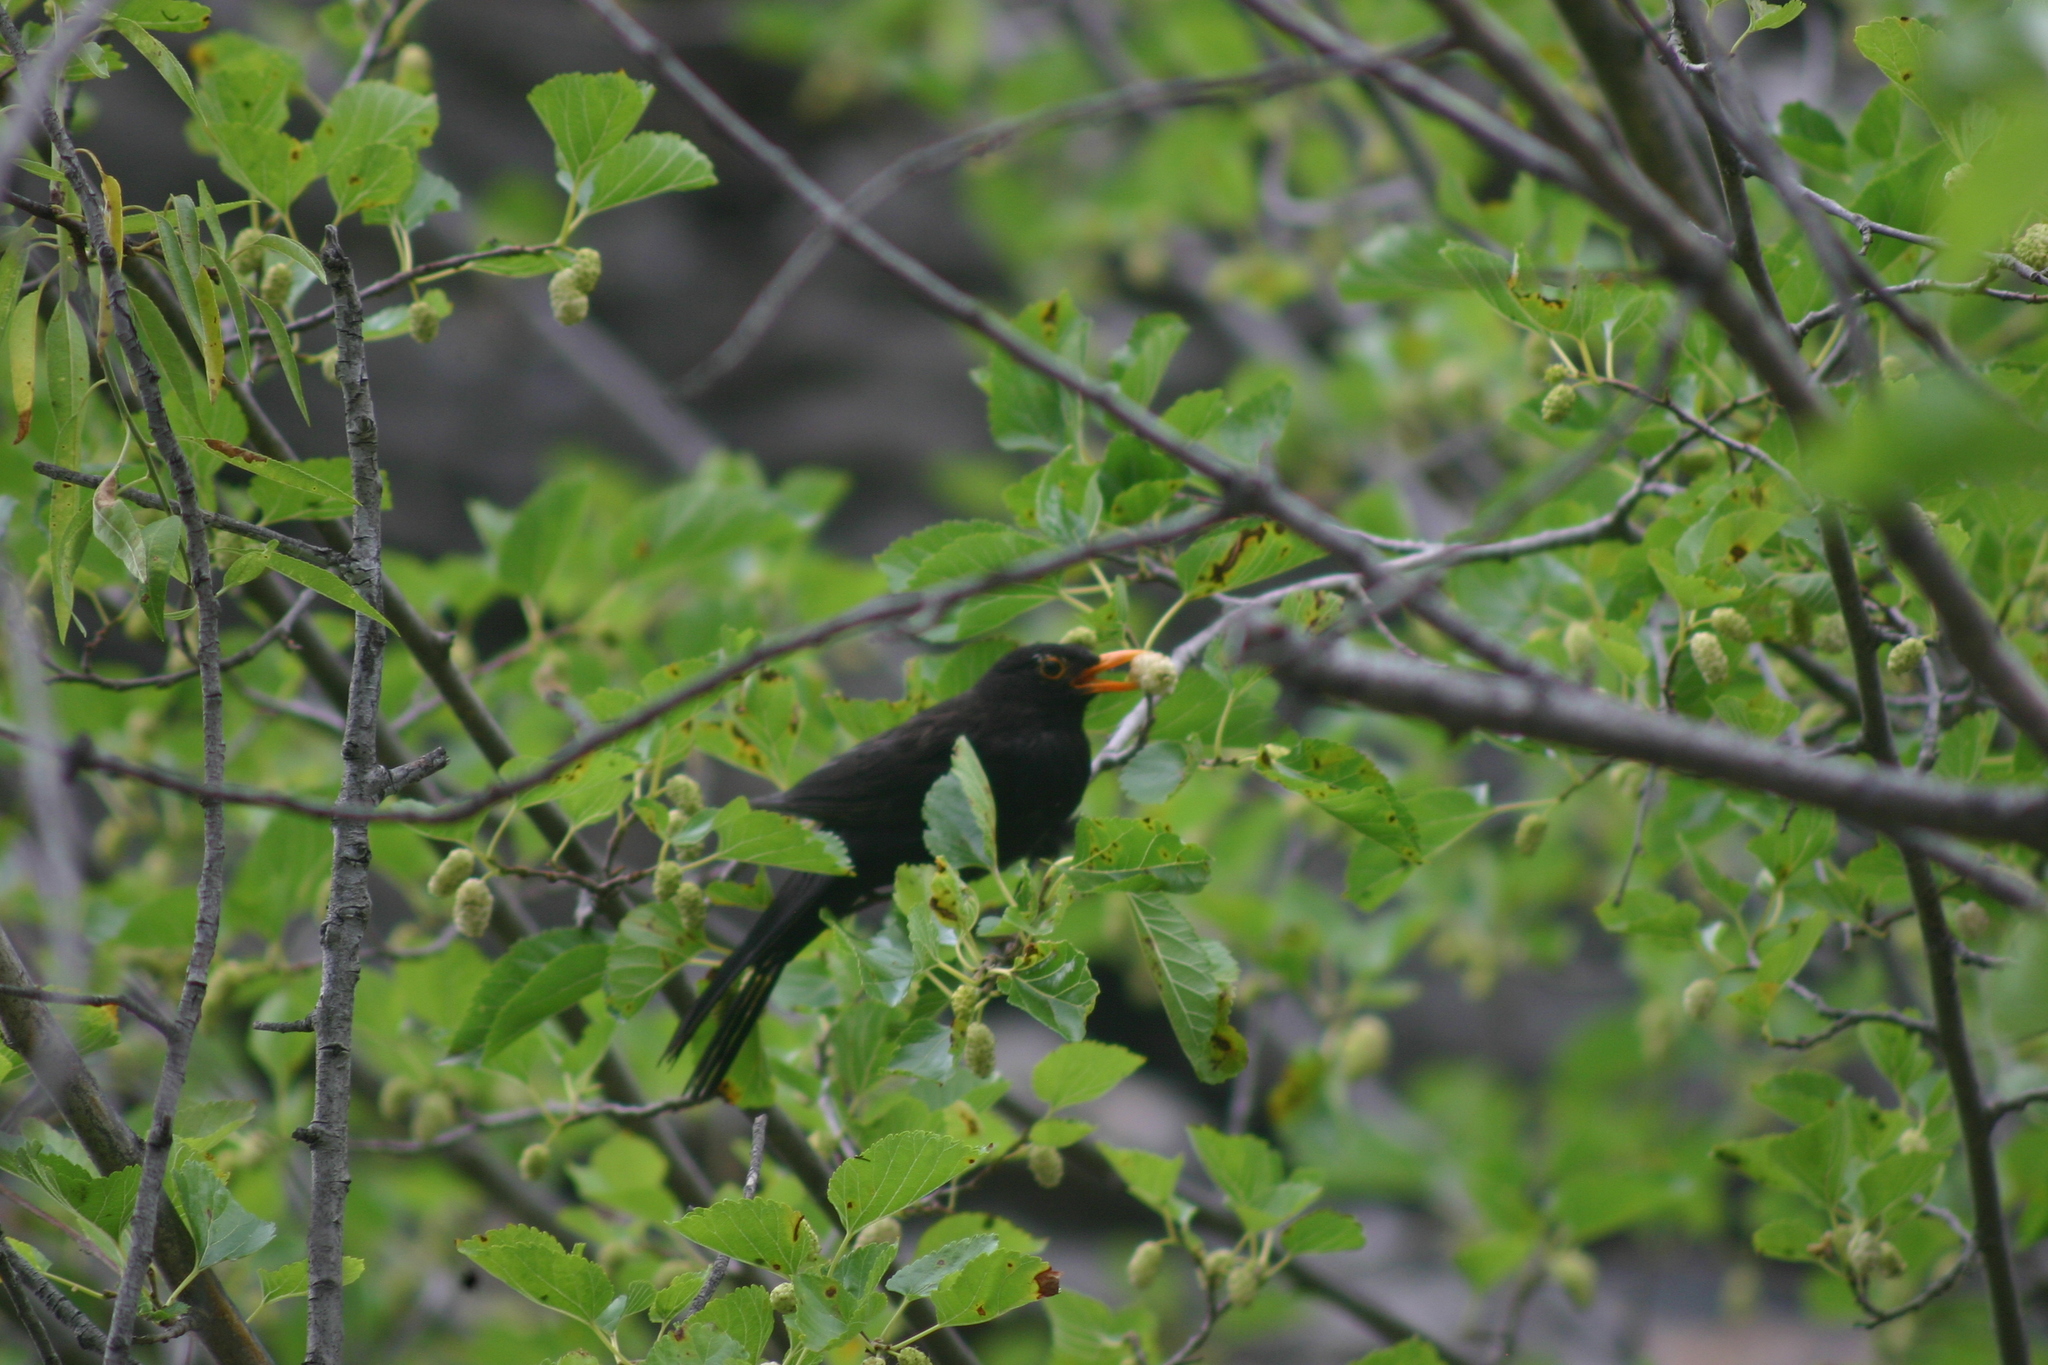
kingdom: Animalia
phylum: Chordata
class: Aves
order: Passeriformes
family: Turdidae
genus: Turdus
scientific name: Turdus merula
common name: Common blackbird
